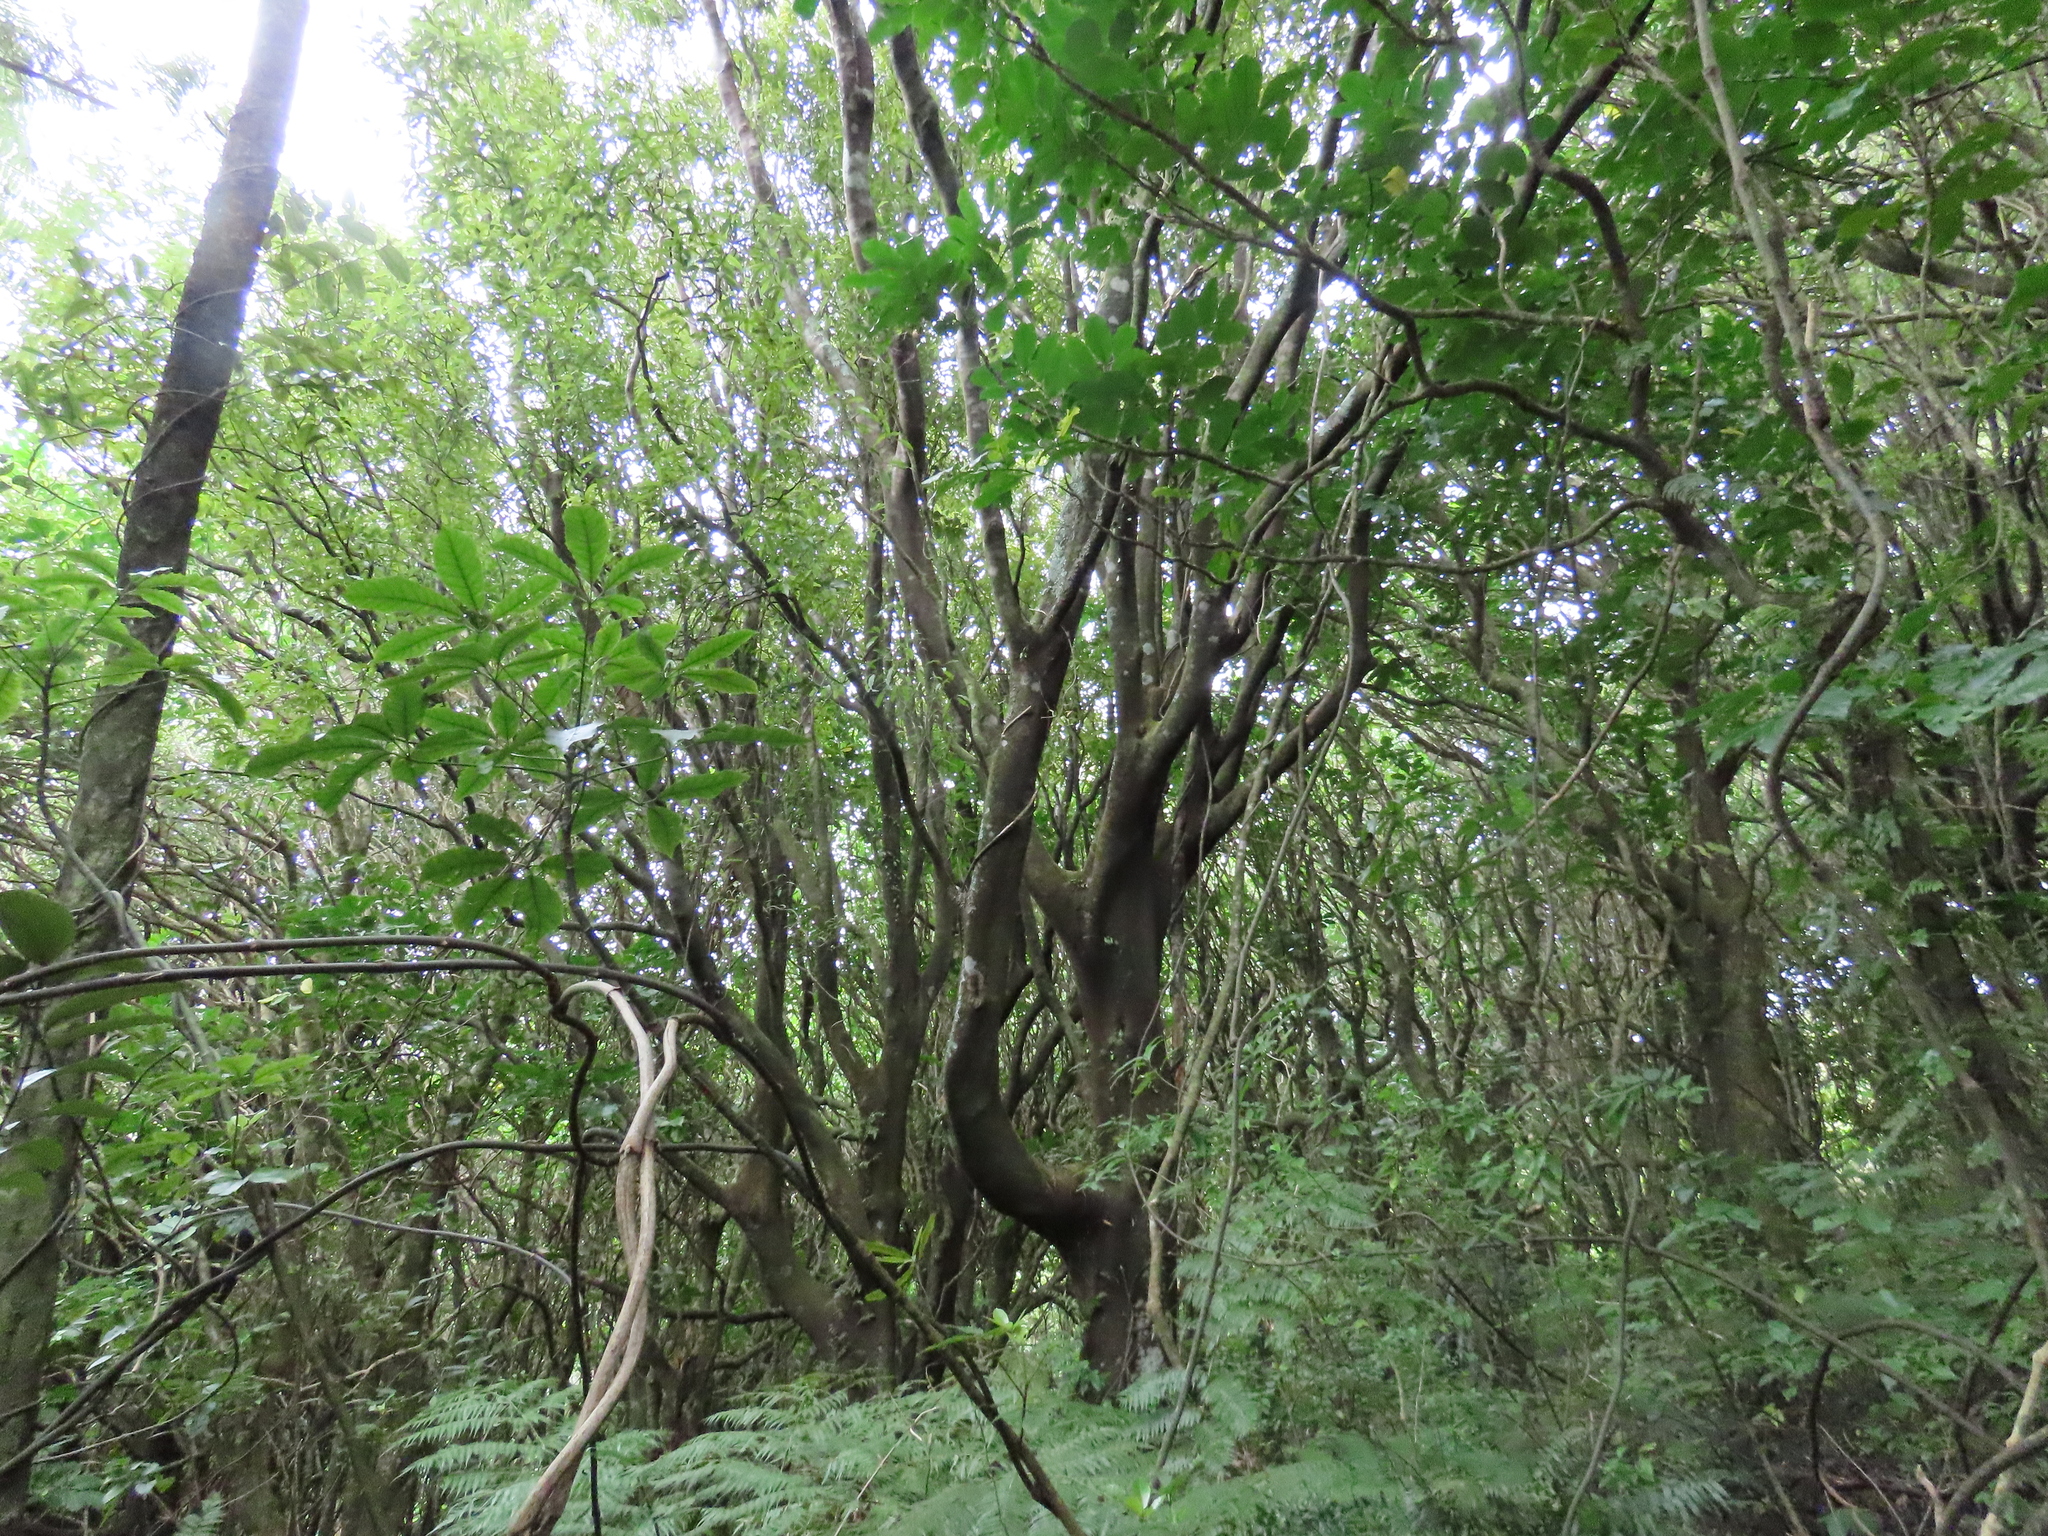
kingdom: Plantae
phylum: Tracheophyta
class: Magnoliopsida
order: Laurales
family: Lauraceae
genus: Beilschmiedia
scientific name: Beilschmiedia tawa
